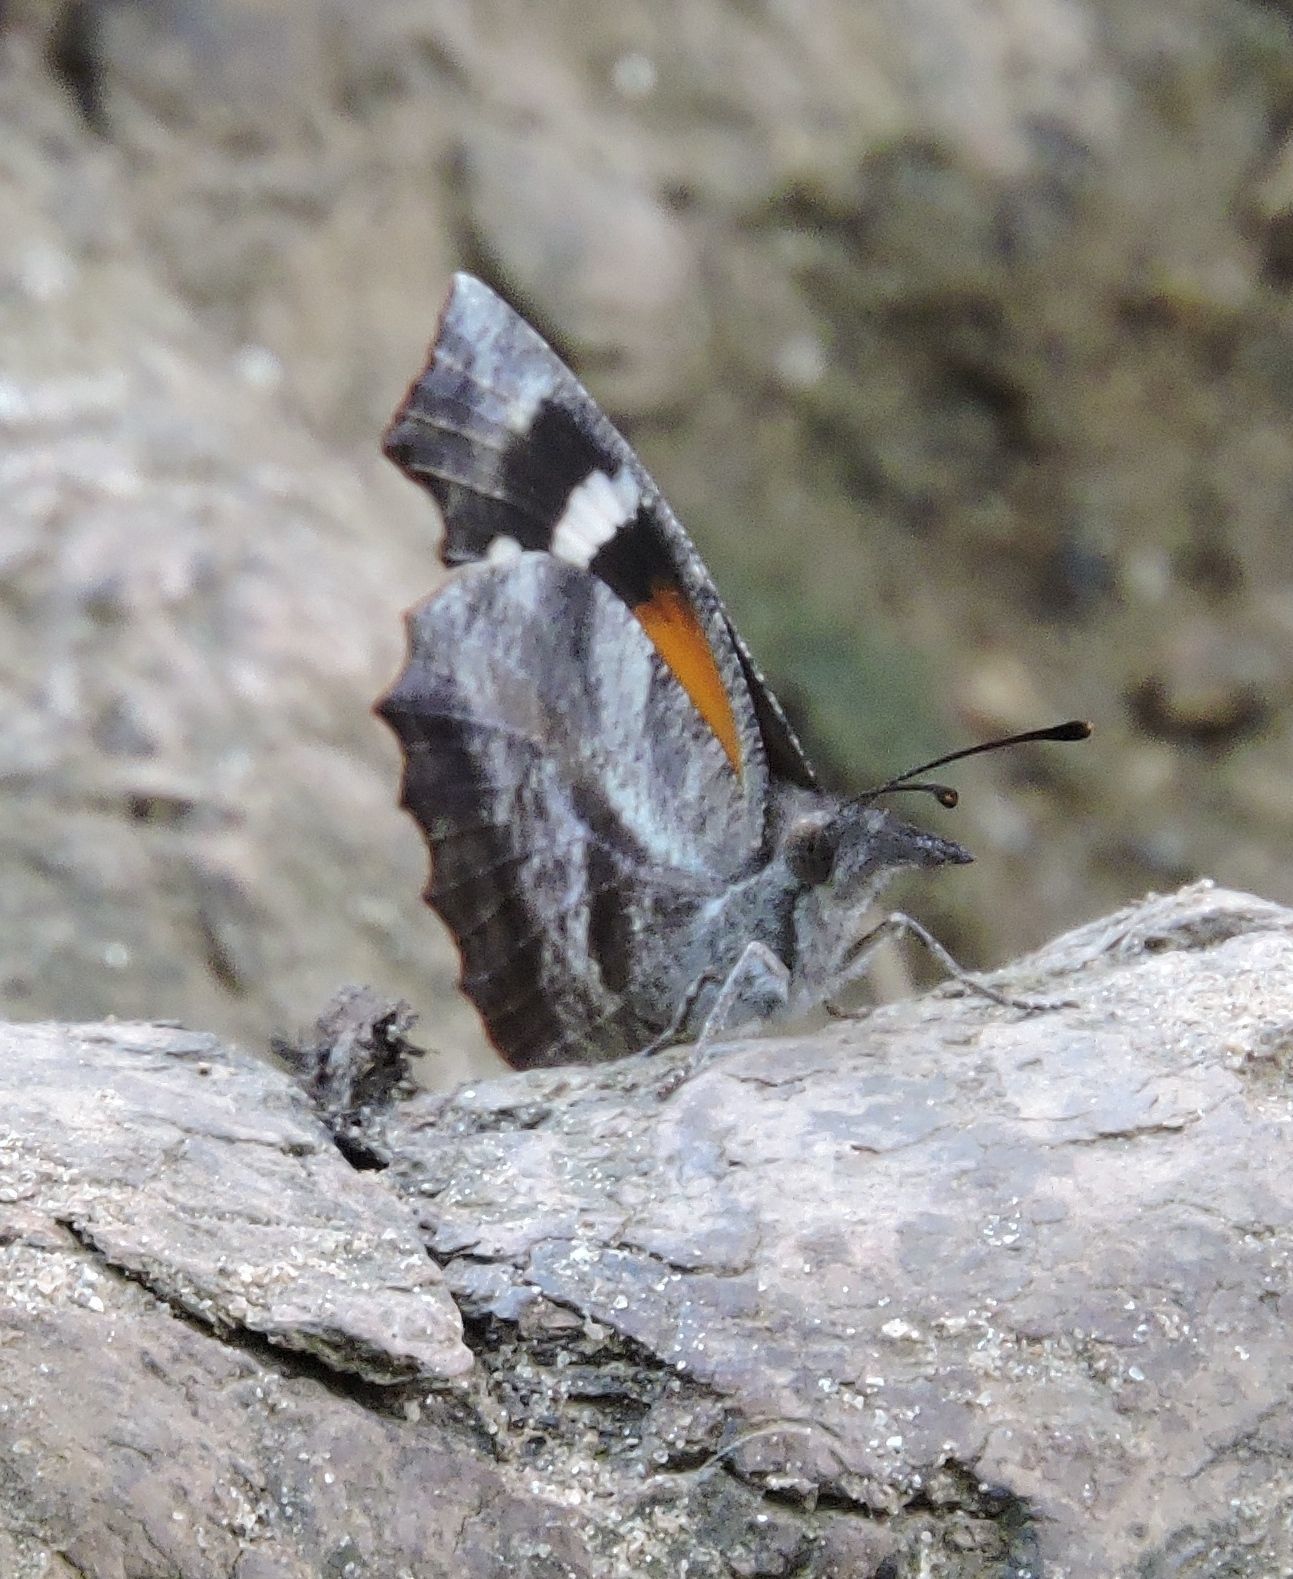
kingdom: Animalia
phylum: Arthropoda
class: Insecta
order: Lepidoptera
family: Nymphalidae
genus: Libytheana
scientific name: Libytheana carinenta
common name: American snout
